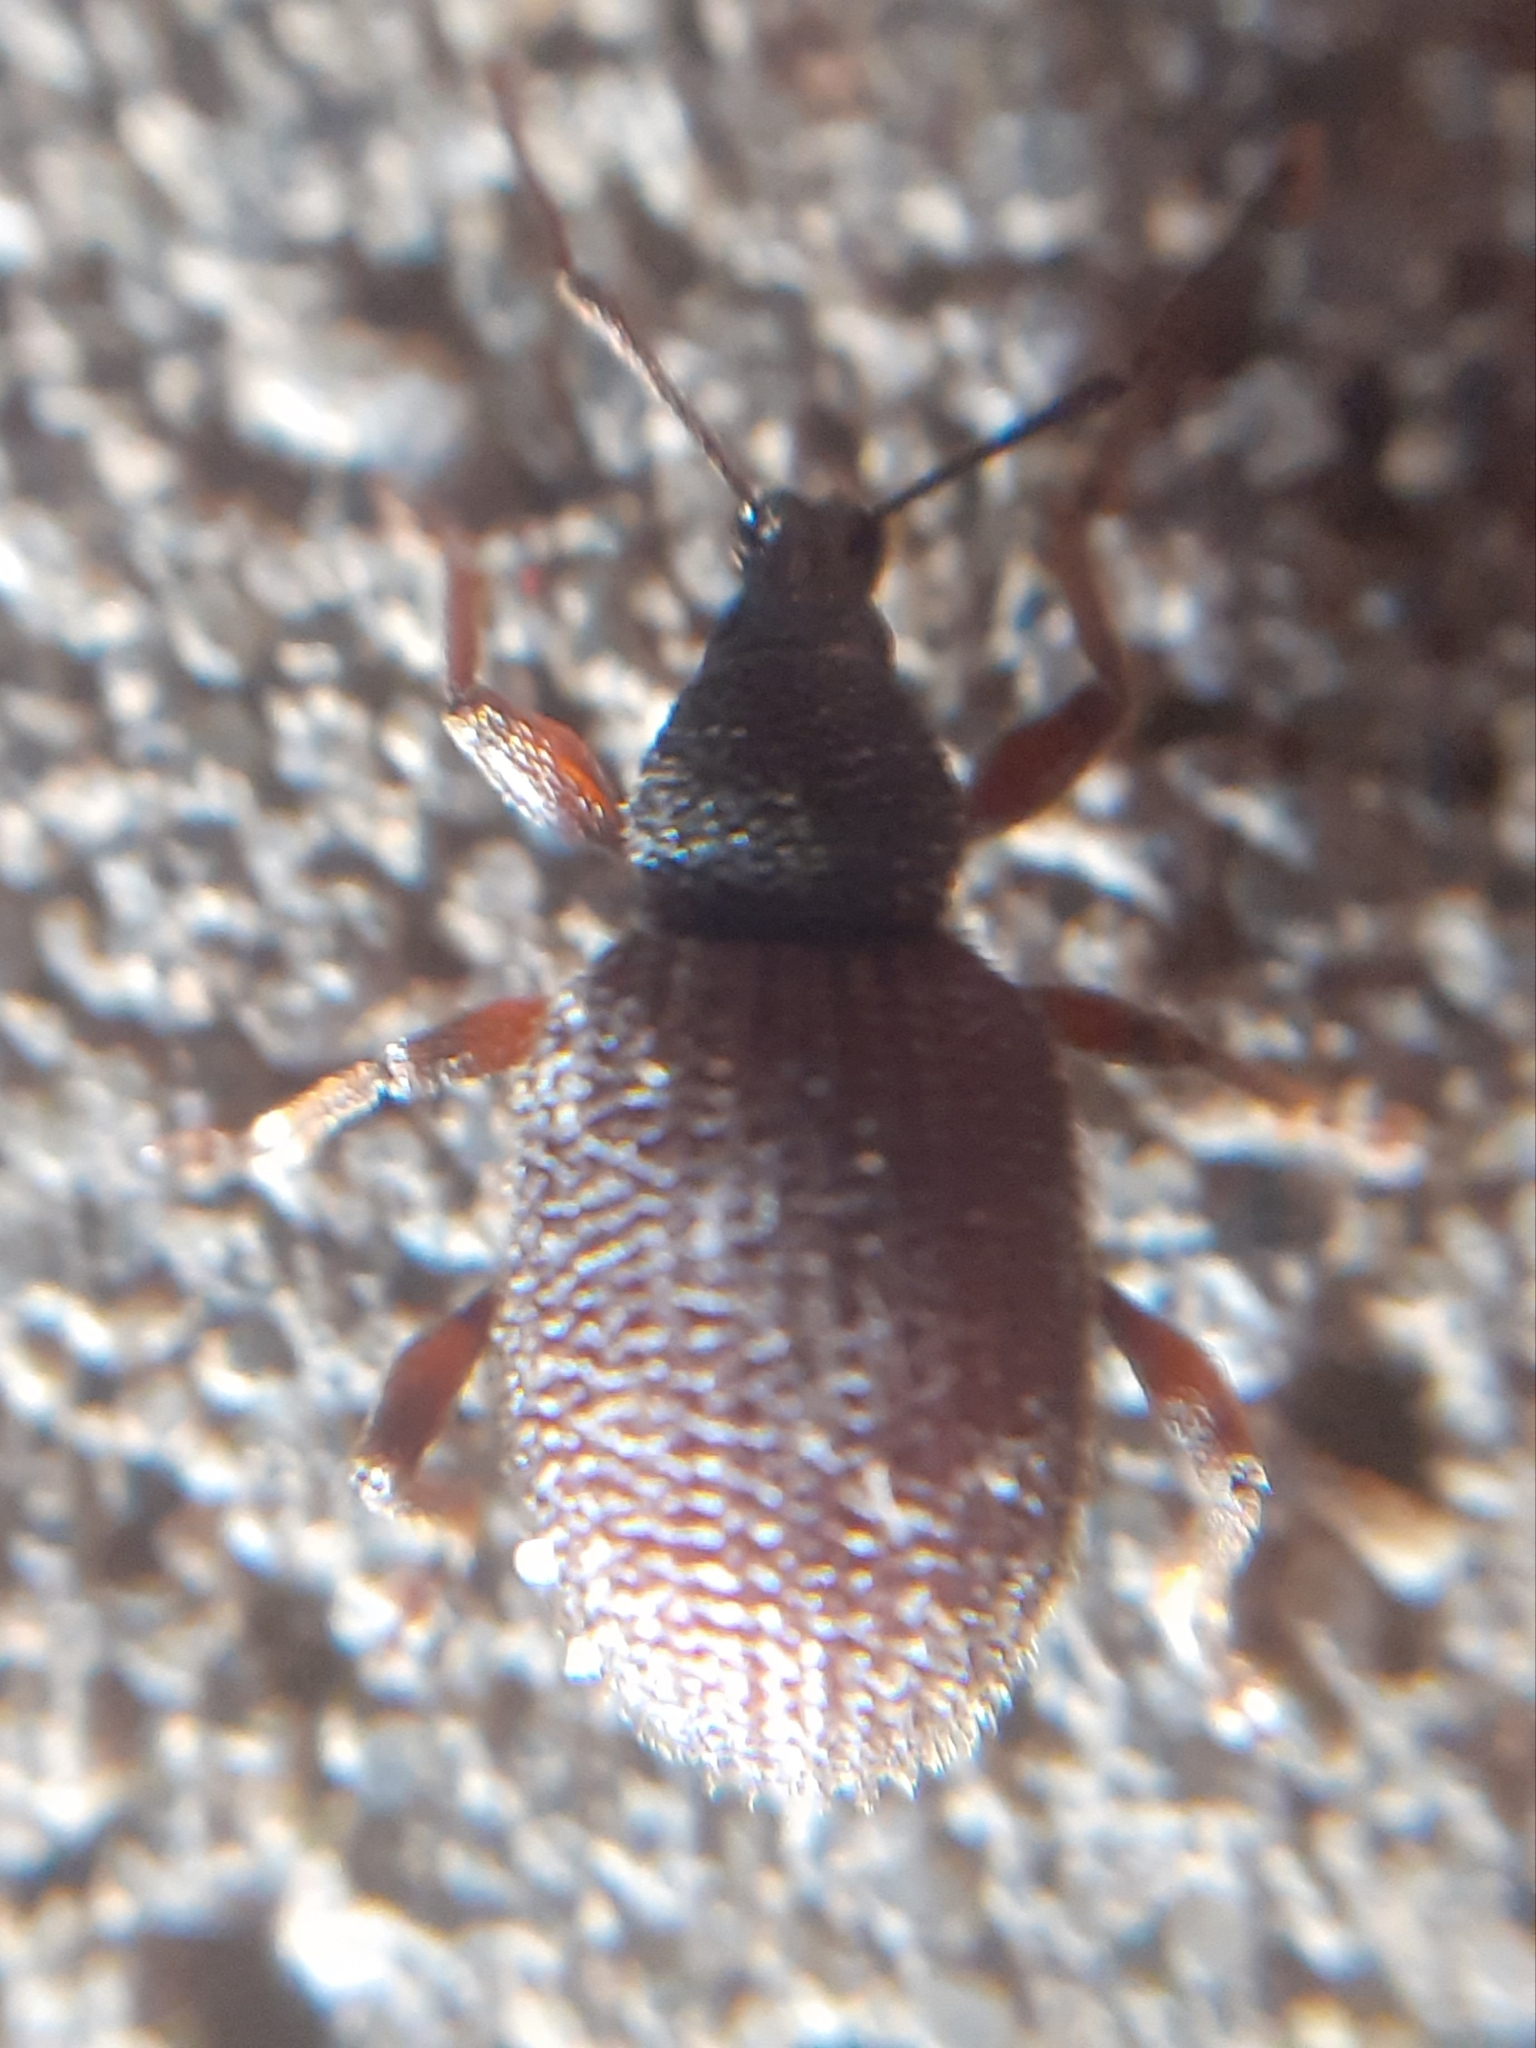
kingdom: Animalia
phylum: Arthropoda
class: Insecta
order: Coleoptera
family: Curculionidae
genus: Otiorhynchus
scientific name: Otiorhynchus rugosostriatus
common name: Weevil
